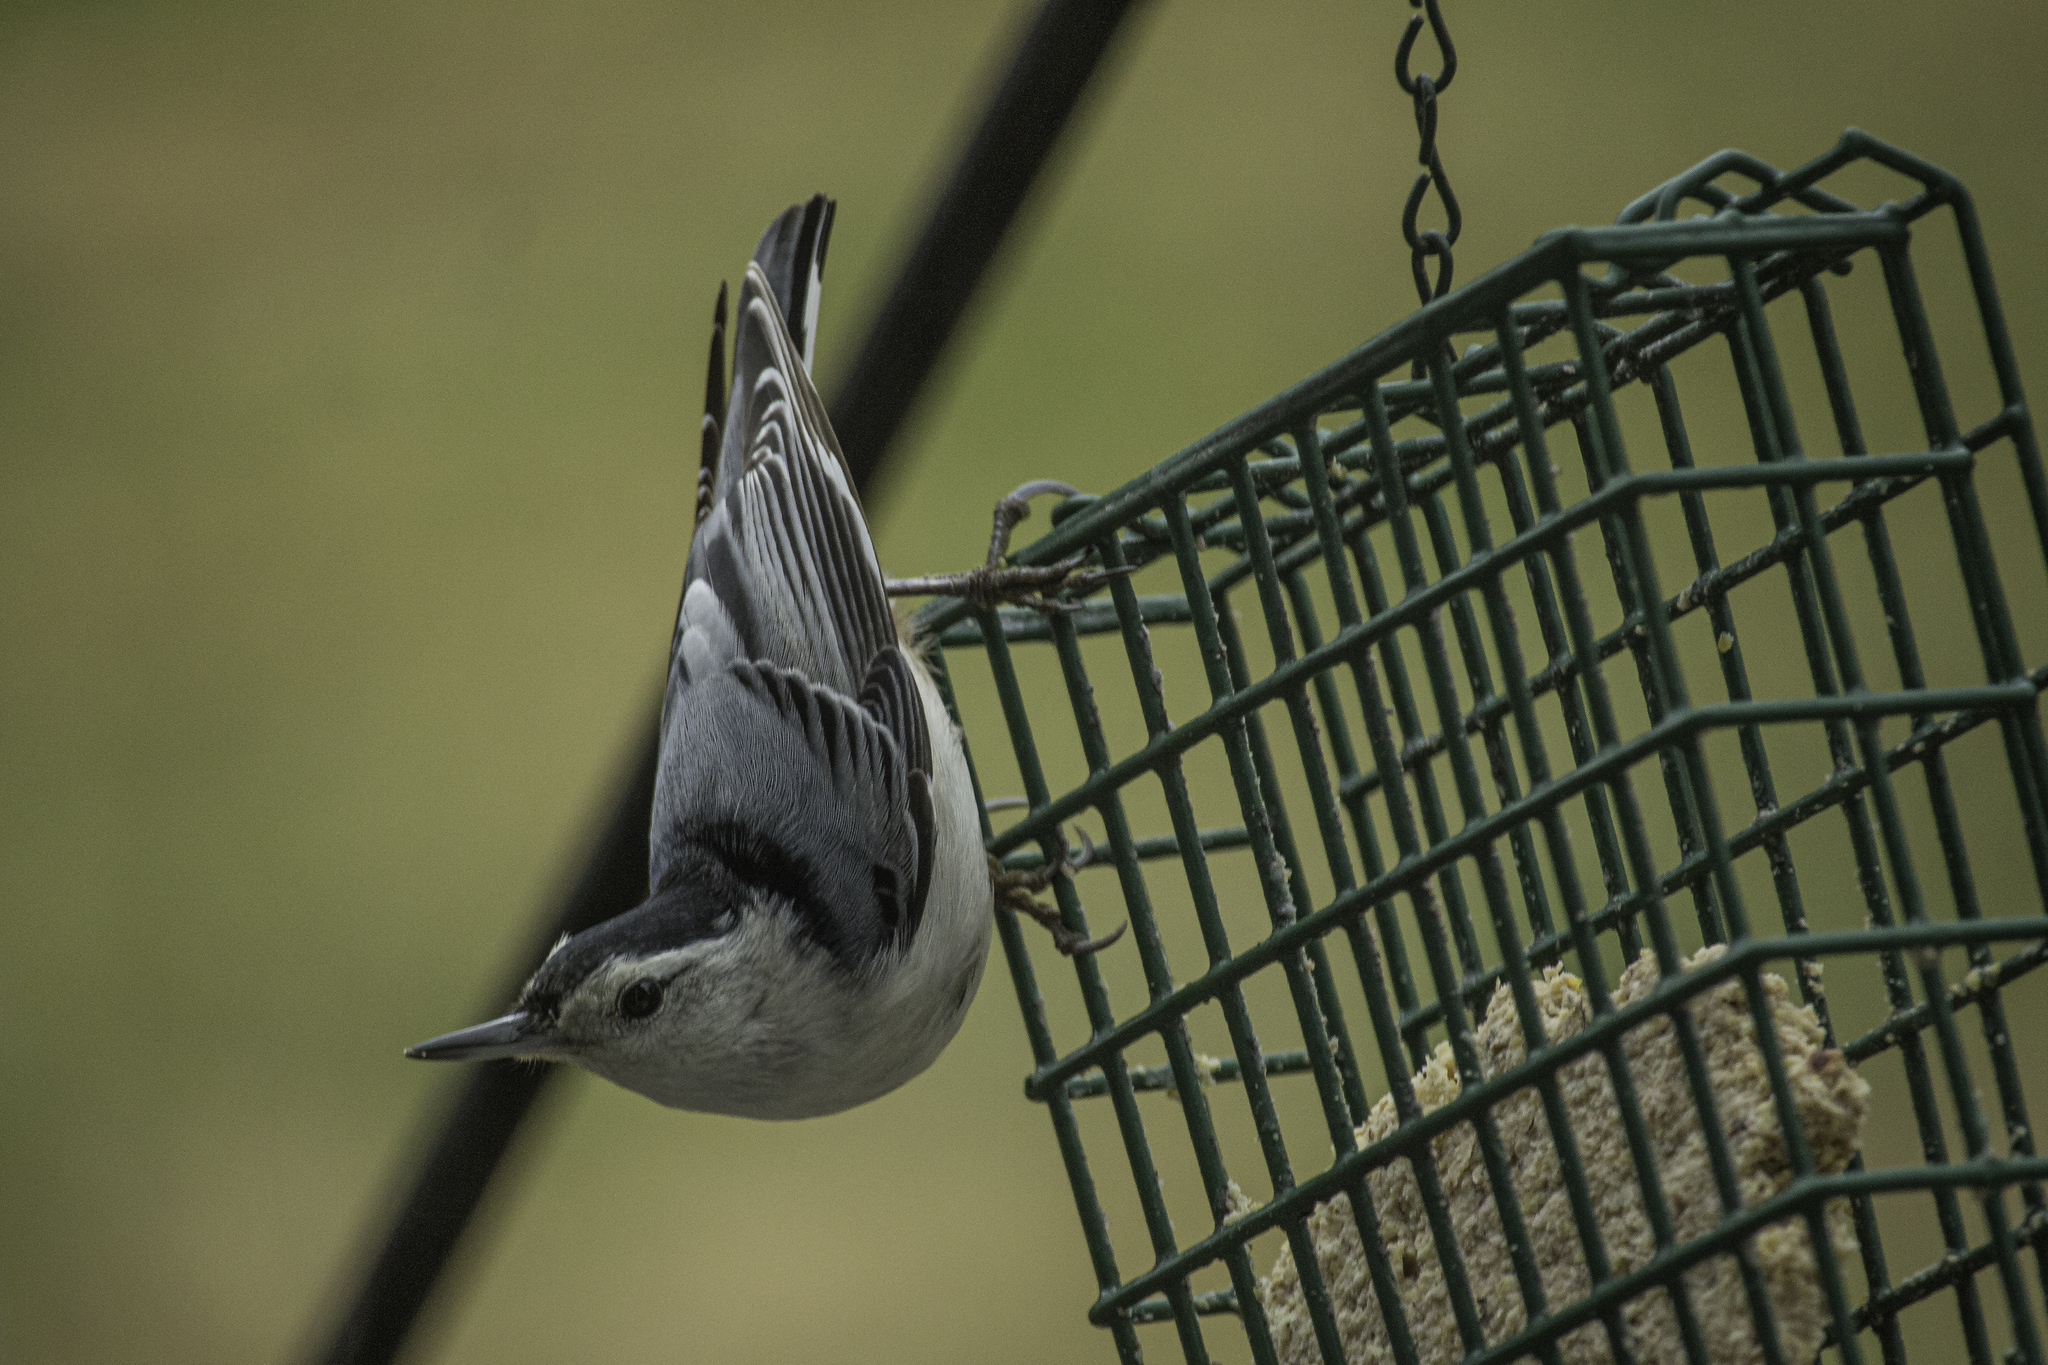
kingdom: Animalia
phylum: Chordata
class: Aves
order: Passeriformes
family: Sittidae
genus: Sitta
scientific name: Sitta carolinensis
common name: White-breasted nuthatch
